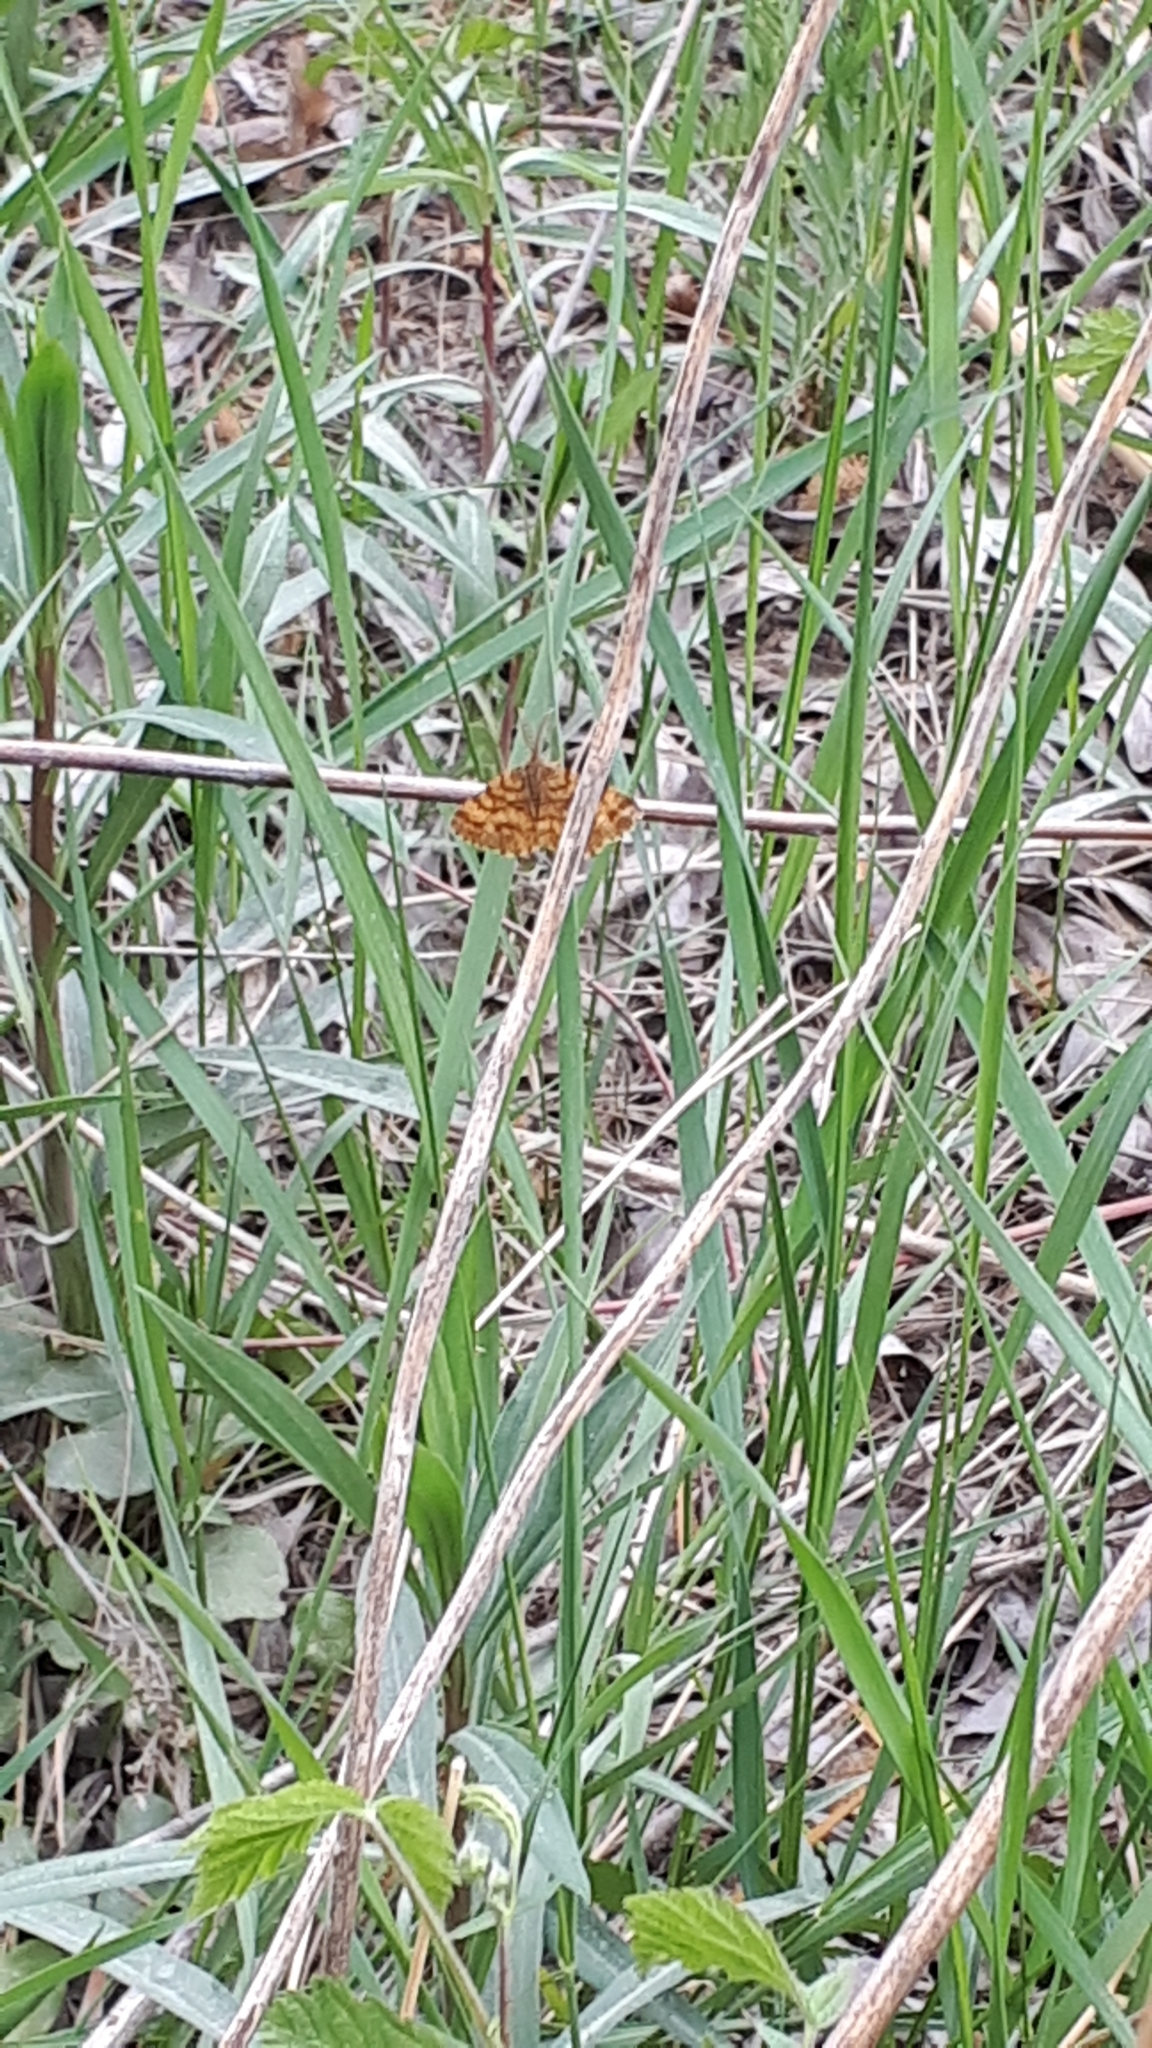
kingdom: Animalia
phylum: Arthropoda
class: Insecta
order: Lepidoptera
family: Geometridae
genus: Ematurga
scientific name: Ematurga atomaria
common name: Common heath
